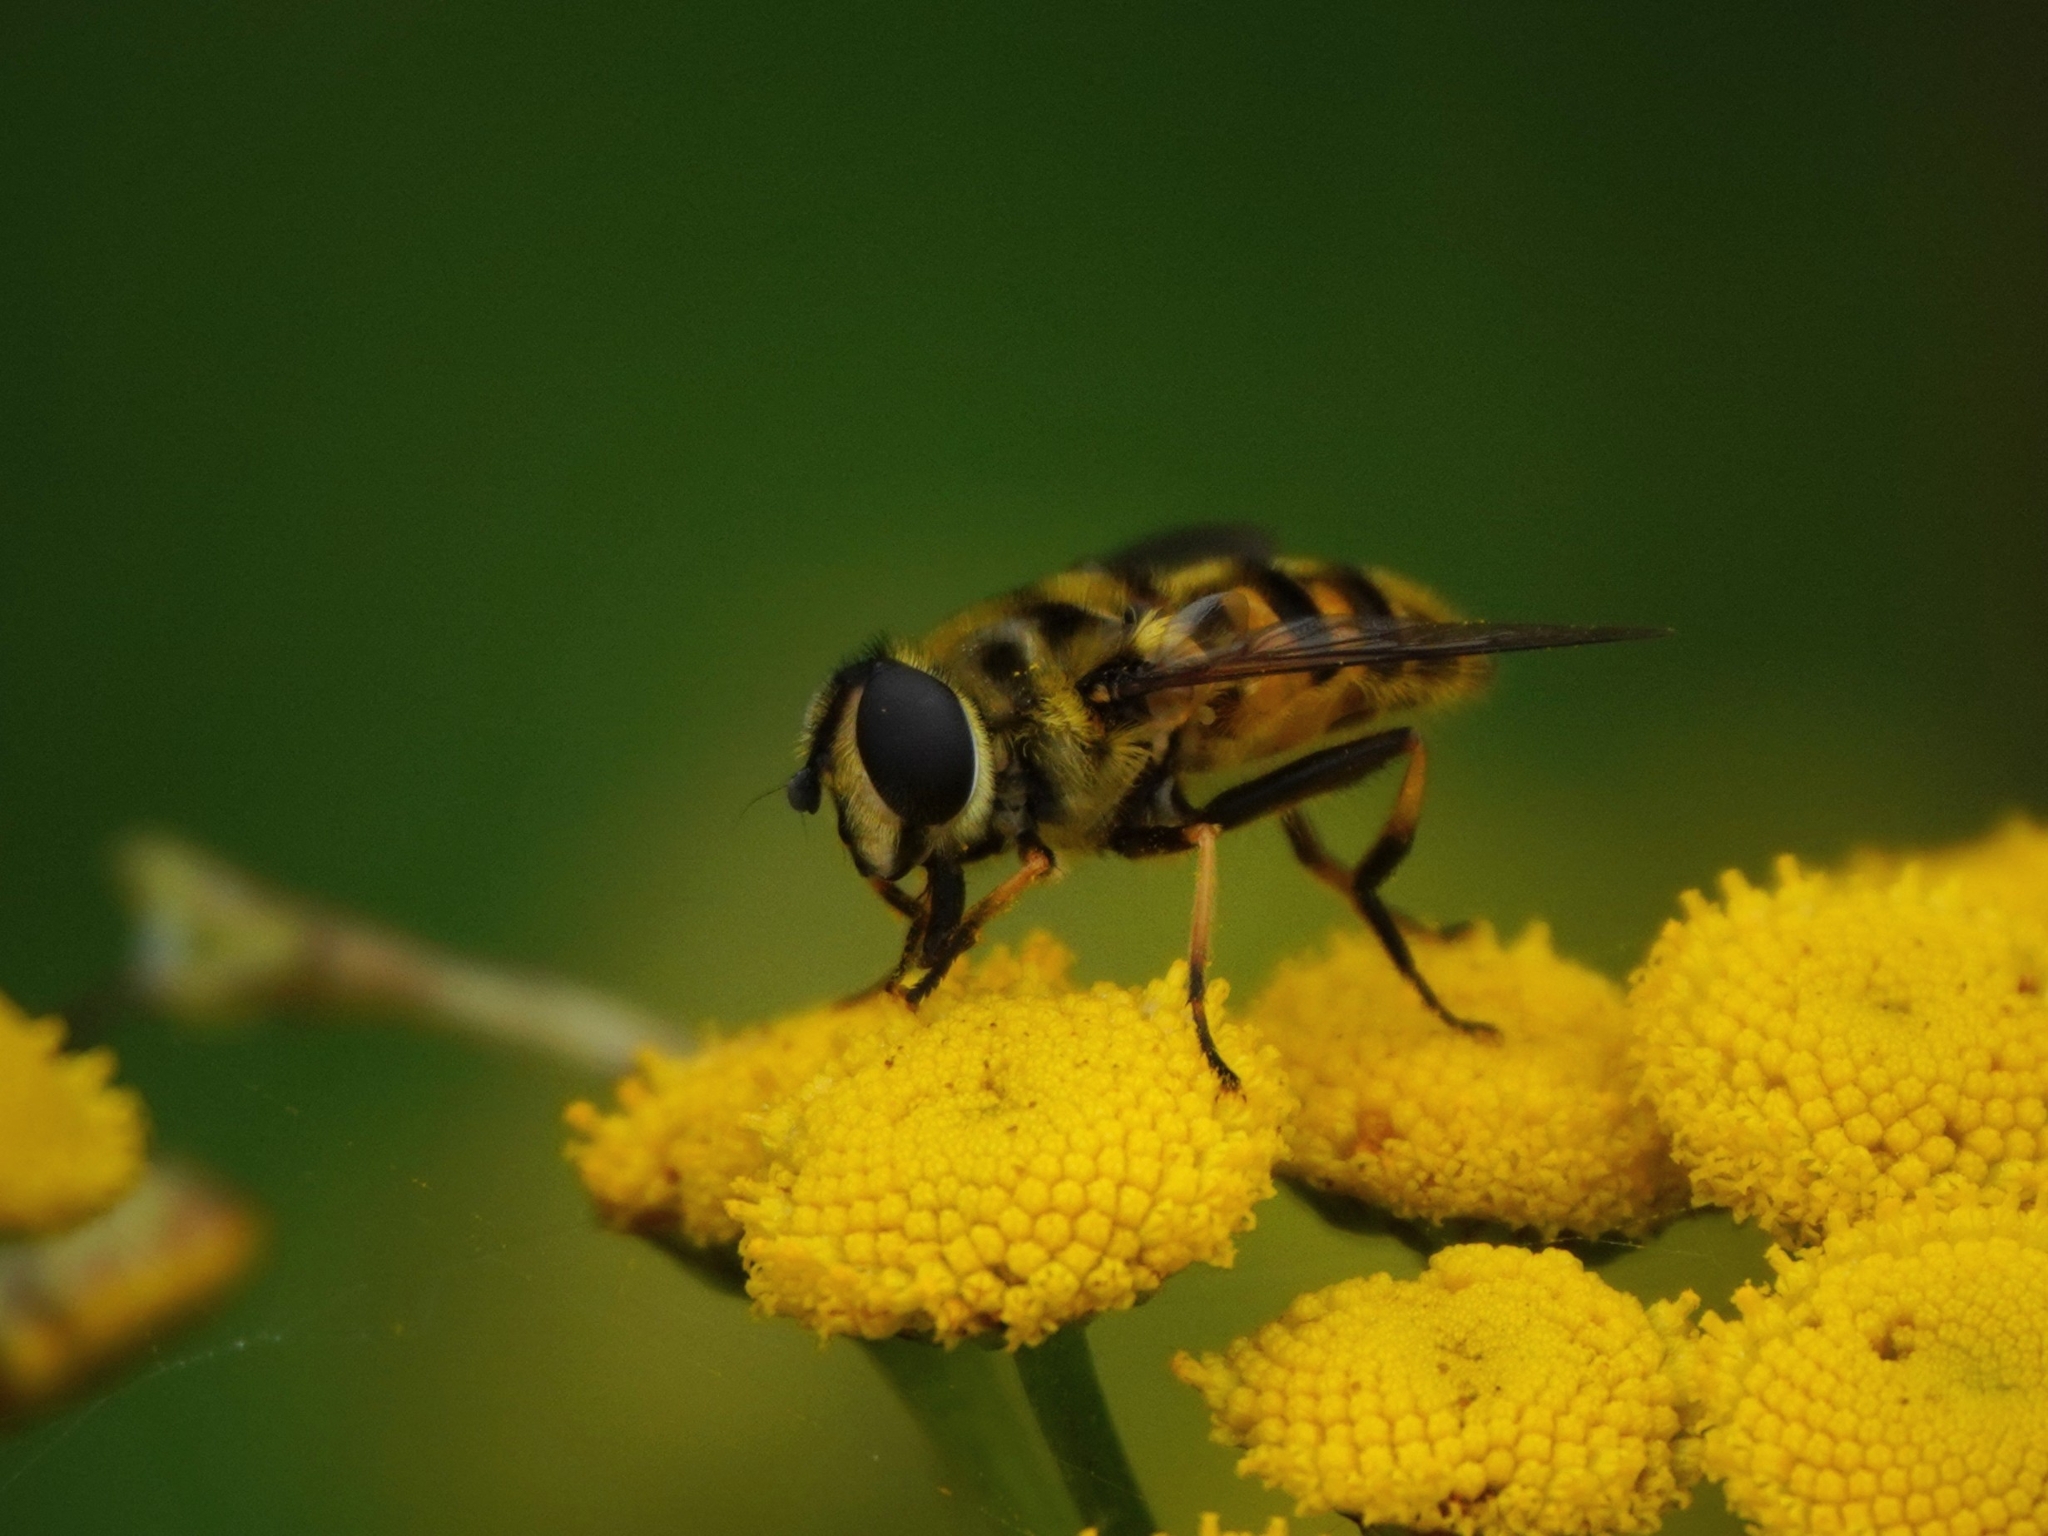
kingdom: Animalia
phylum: Arthropoda
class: Insecta
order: Diptera
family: Syrphidae
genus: Myathropa
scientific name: Myathropa florea
